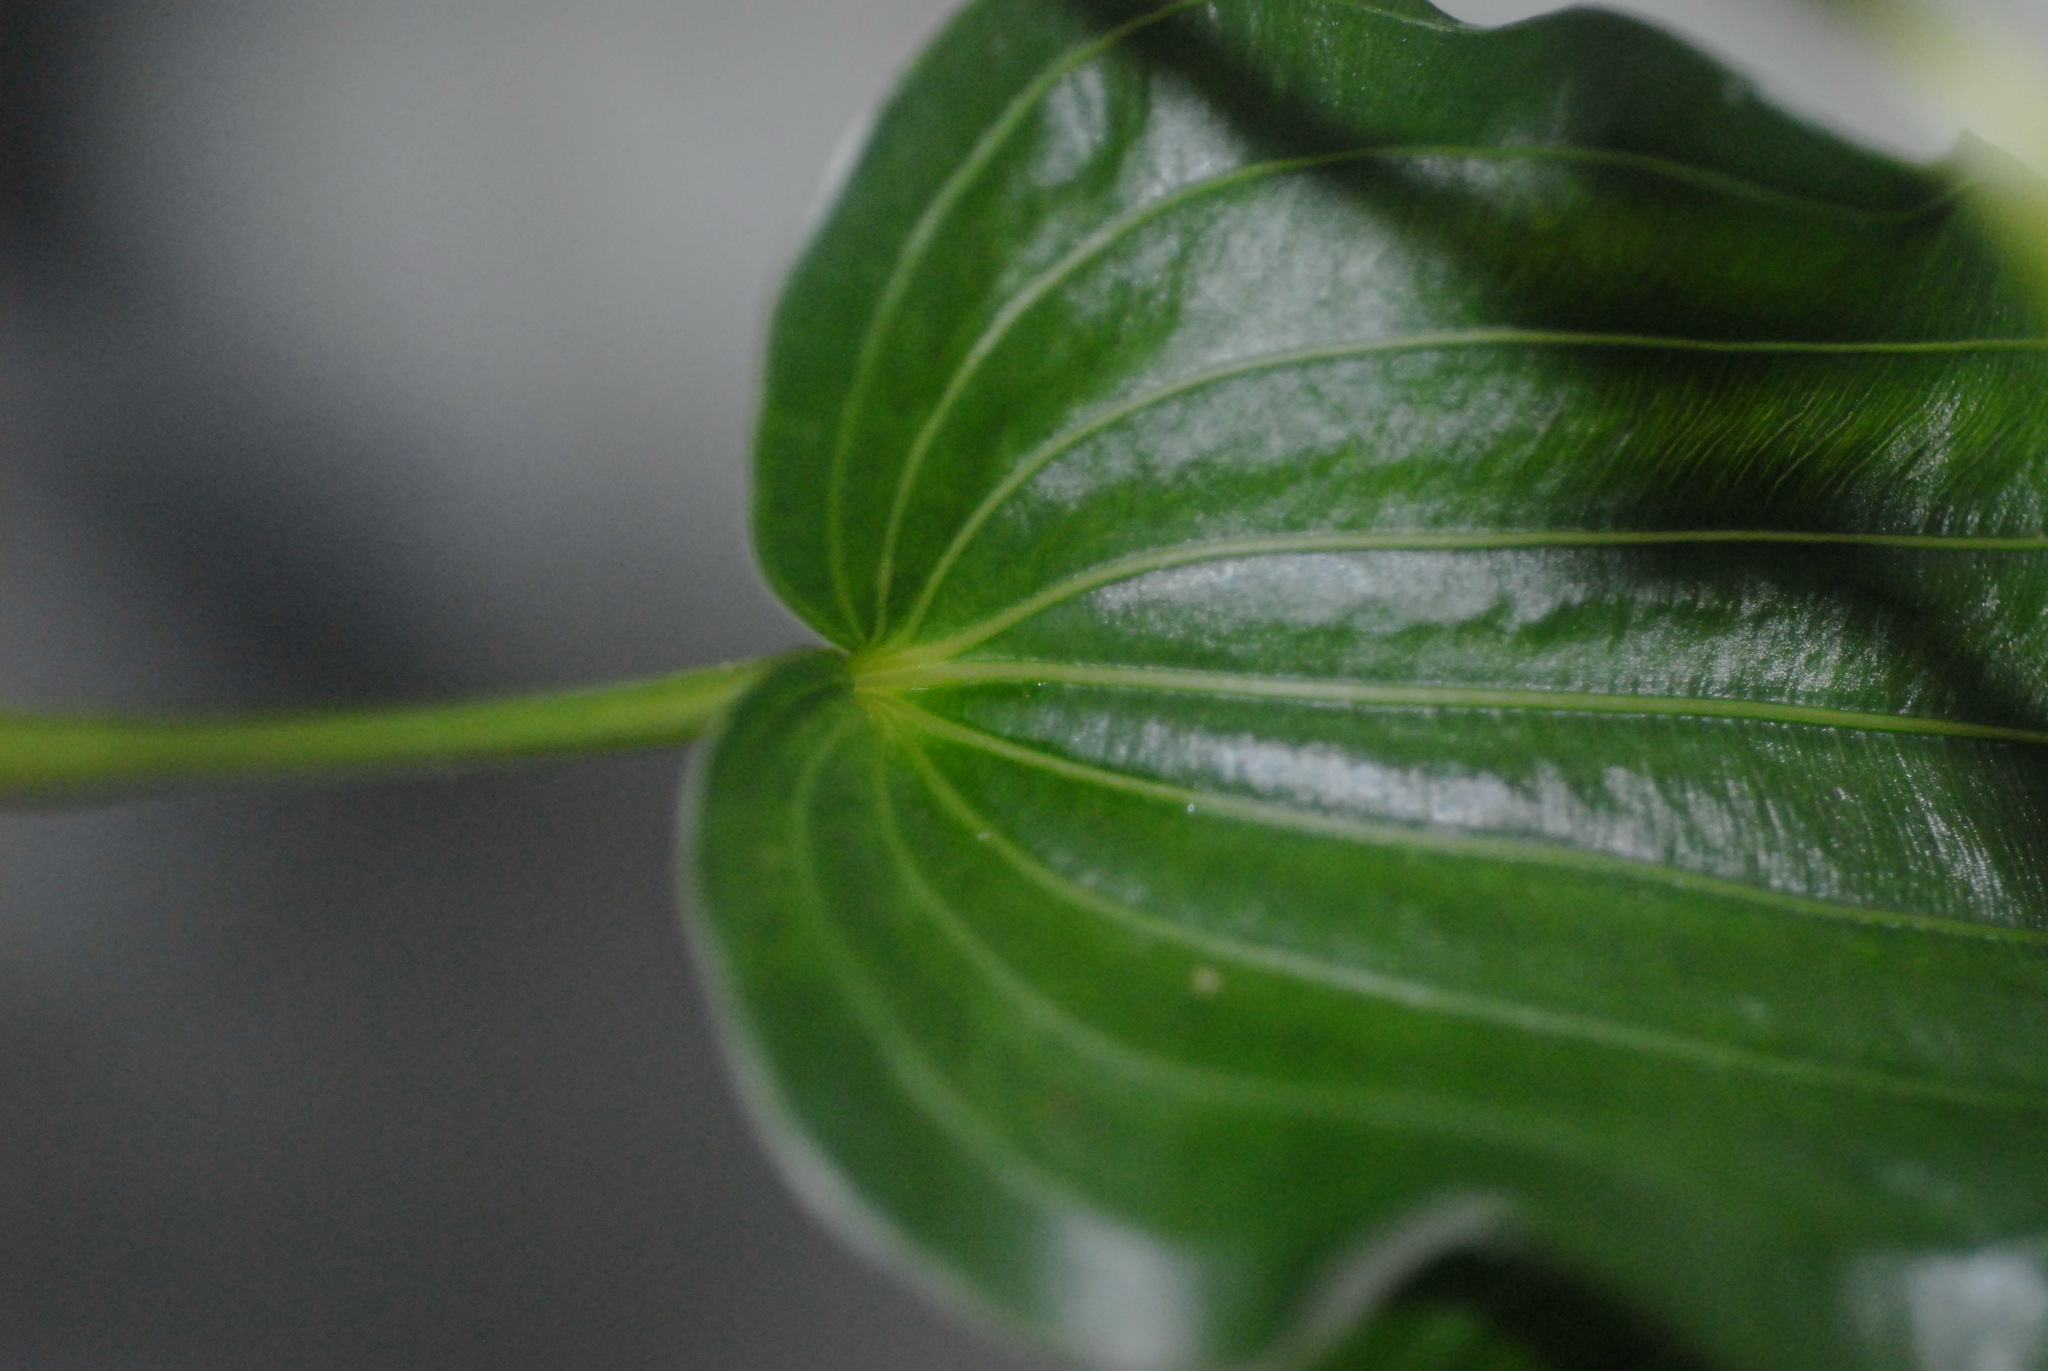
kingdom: Plantae
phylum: Tracheophyta
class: Liliopsida
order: Pandanales
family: Stemonaceae
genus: Stemona
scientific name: Stemona tuberosa
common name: Stemona
